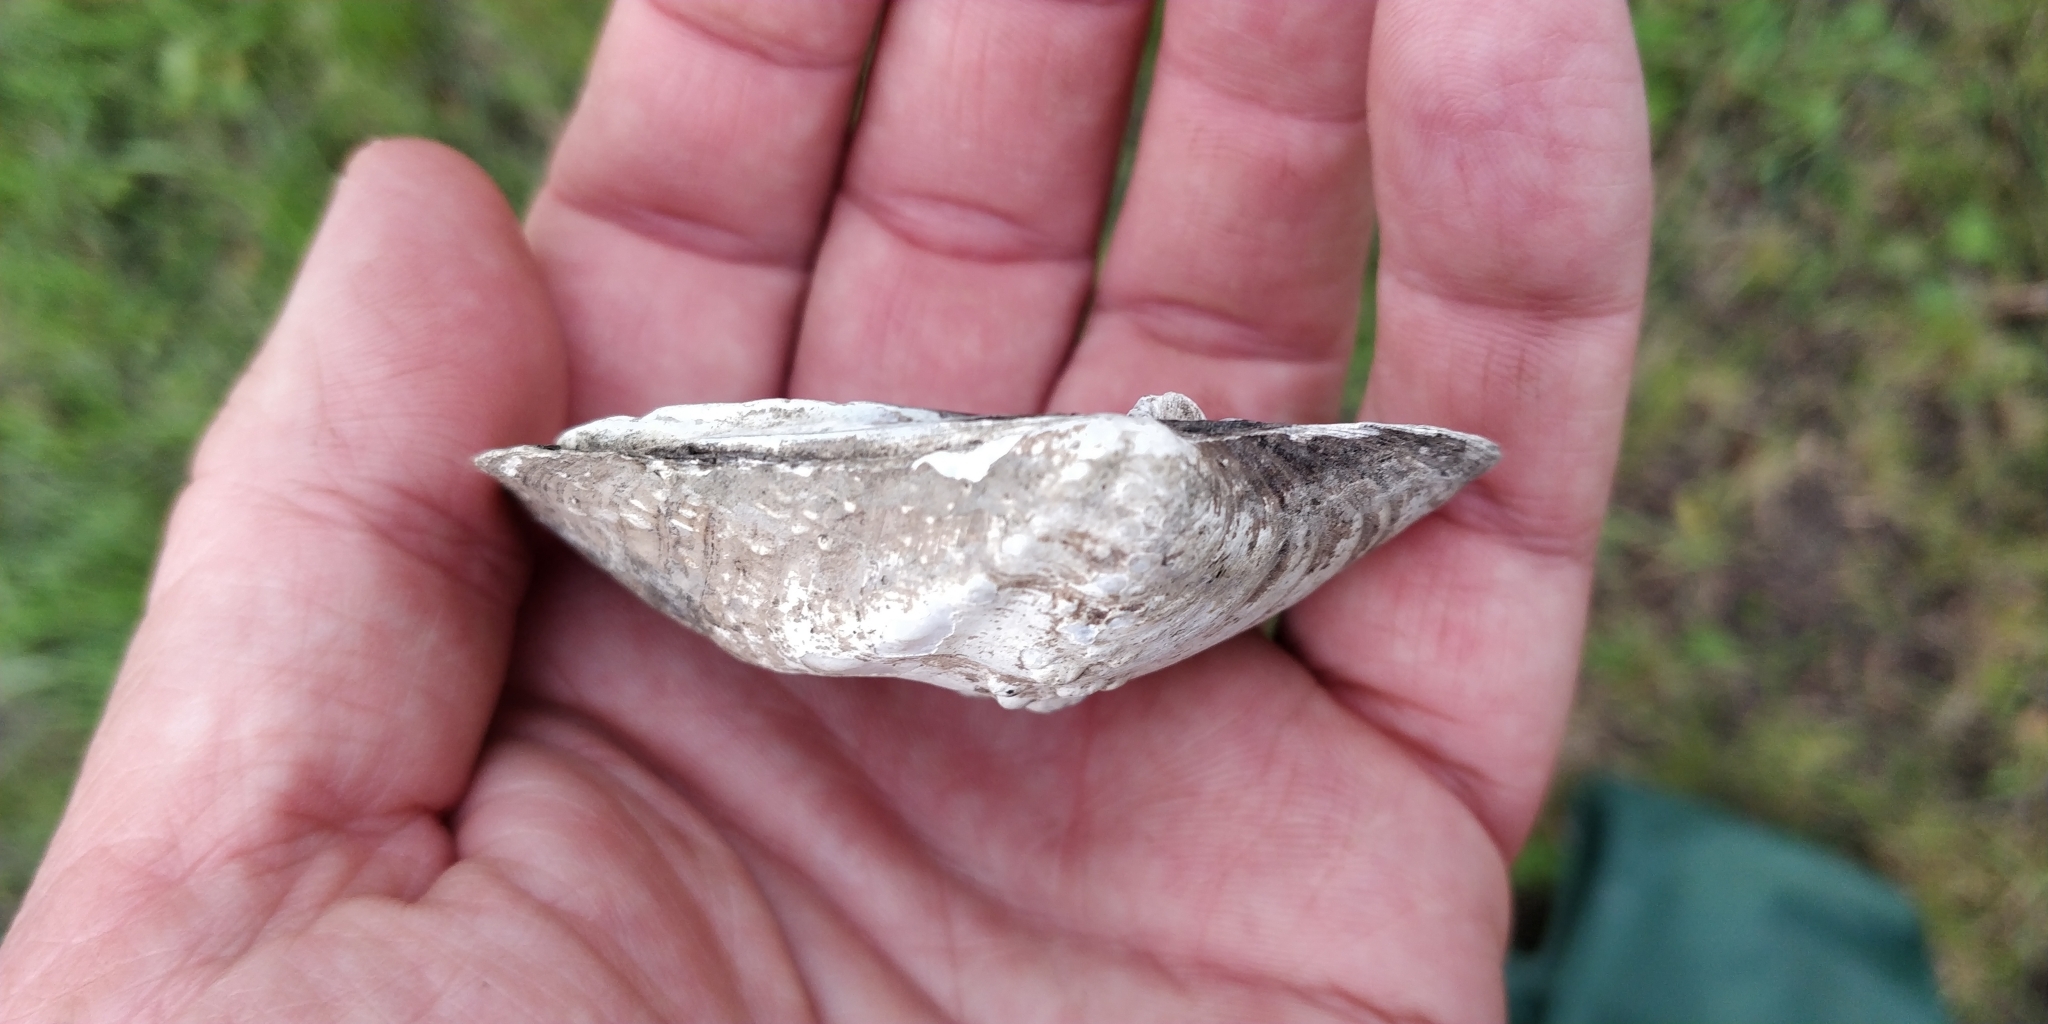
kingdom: Animalia
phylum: Mollusca
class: Bivalvia
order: Unionida
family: Unionidae
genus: Quadrula
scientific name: Quadrula quadrula
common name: Mapleleaf
